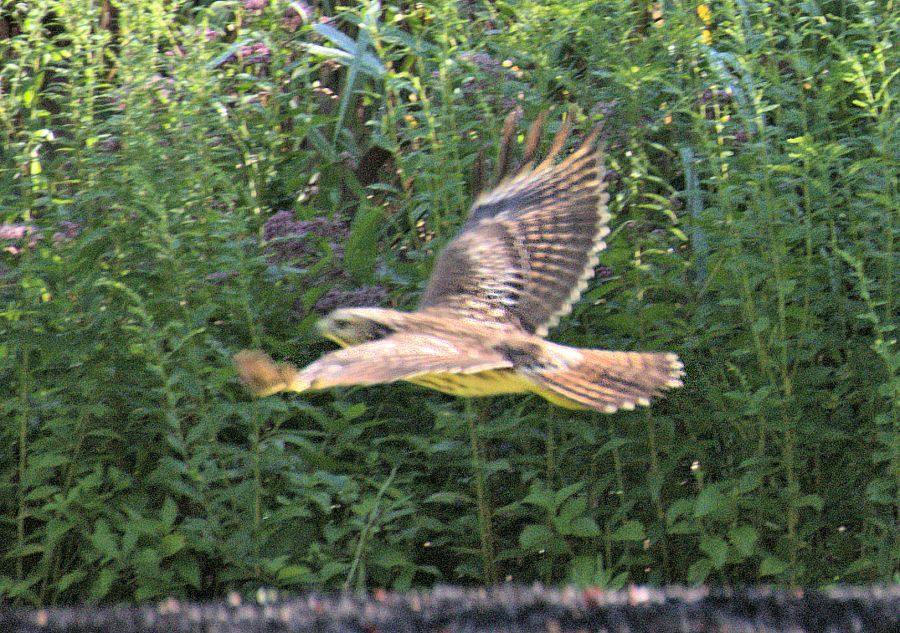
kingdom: Animalia
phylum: Chordata
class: Aves
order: Accipitriformes
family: Accipitridae
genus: Buteo
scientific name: Buteo jamaicensis
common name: Red-tailed hawk
